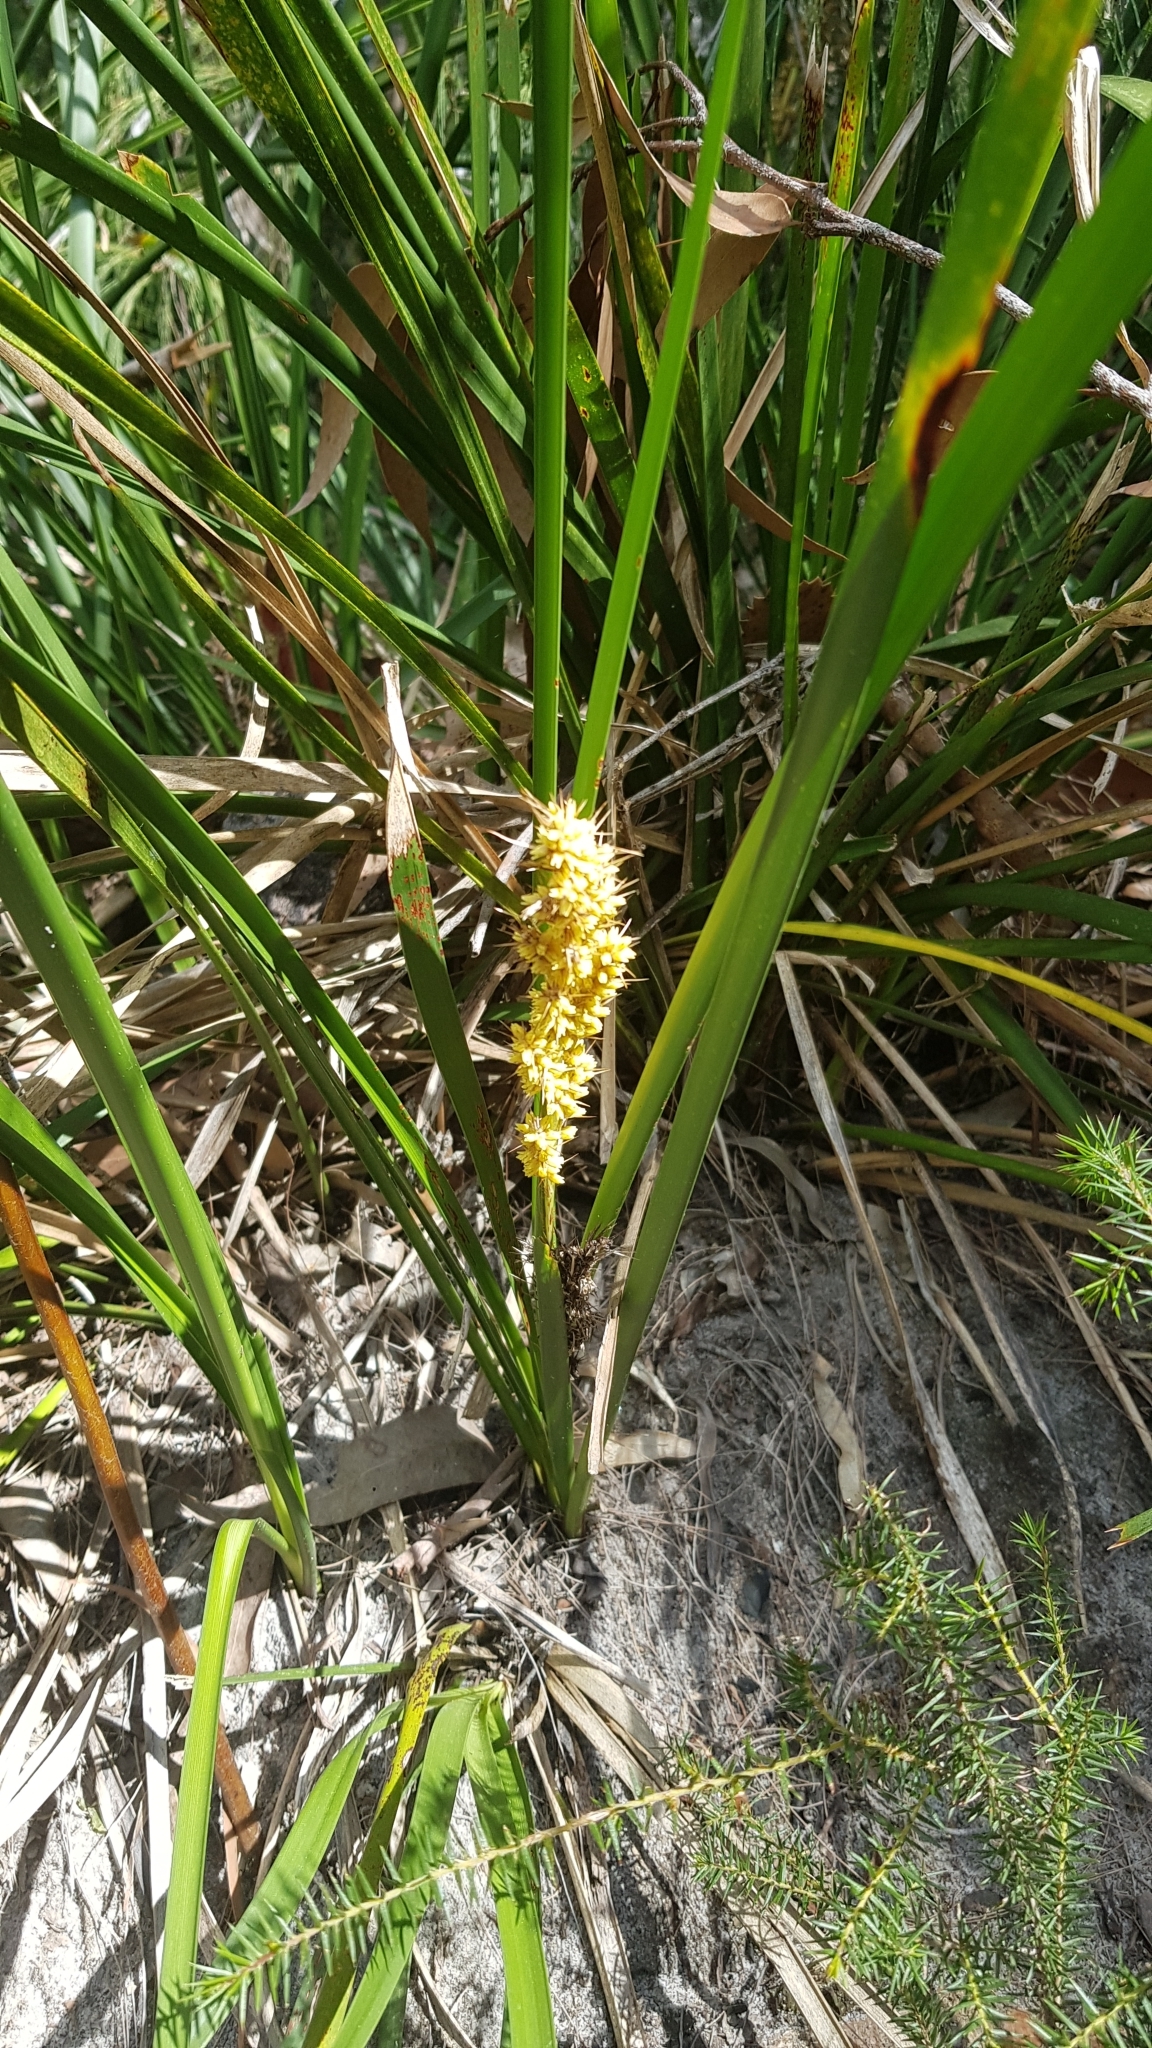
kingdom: Plantae
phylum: Tracheophyta
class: Liliopsida
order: Asparagales
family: Asparagaceae
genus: Lomandra
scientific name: Lomandra longifolia
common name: Longleaf mat-rush
